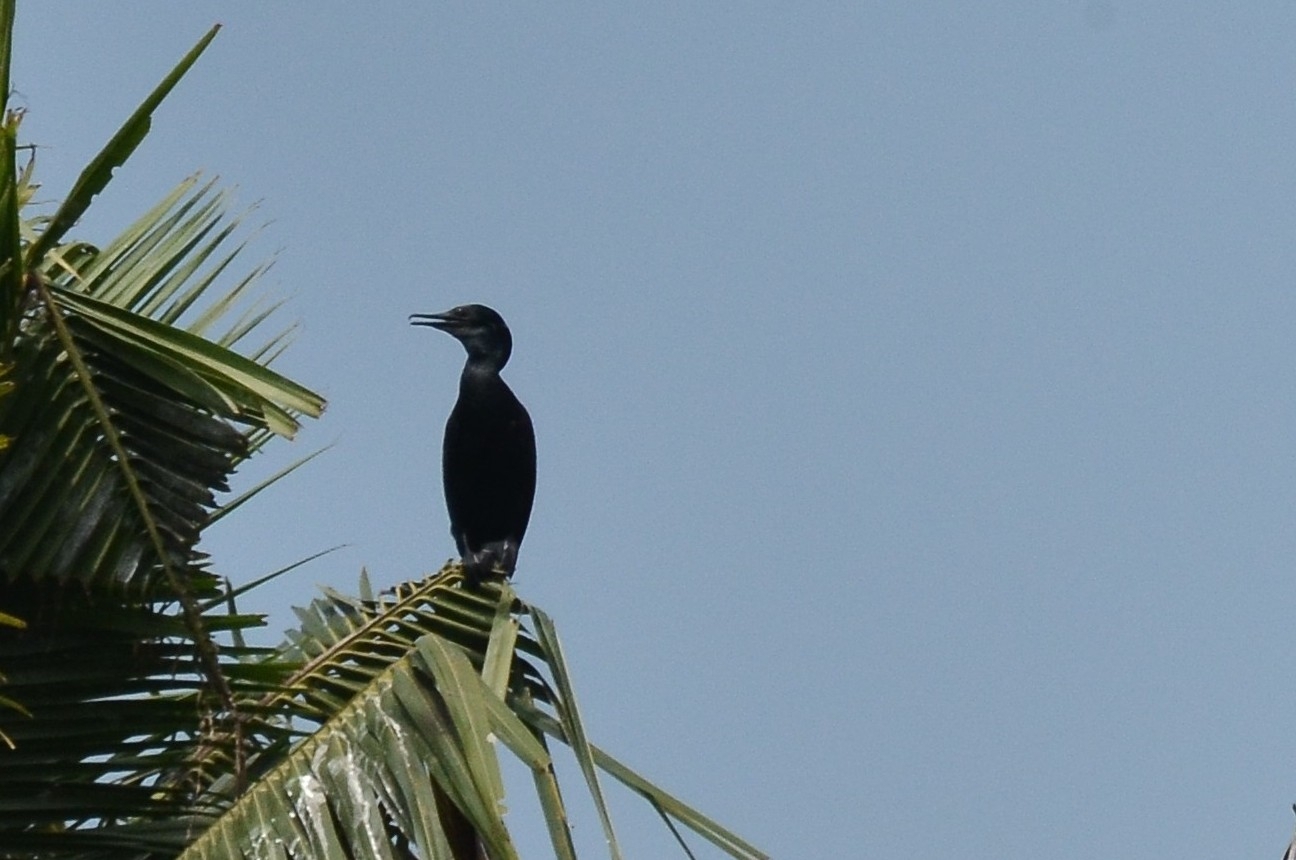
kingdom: Animalia
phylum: Chordata
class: Aves
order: Suliformes
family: Phalacrocoracidae
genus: Phalacrocorax
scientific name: Phalacrocorax fuscicollis
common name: Indian cormorant
